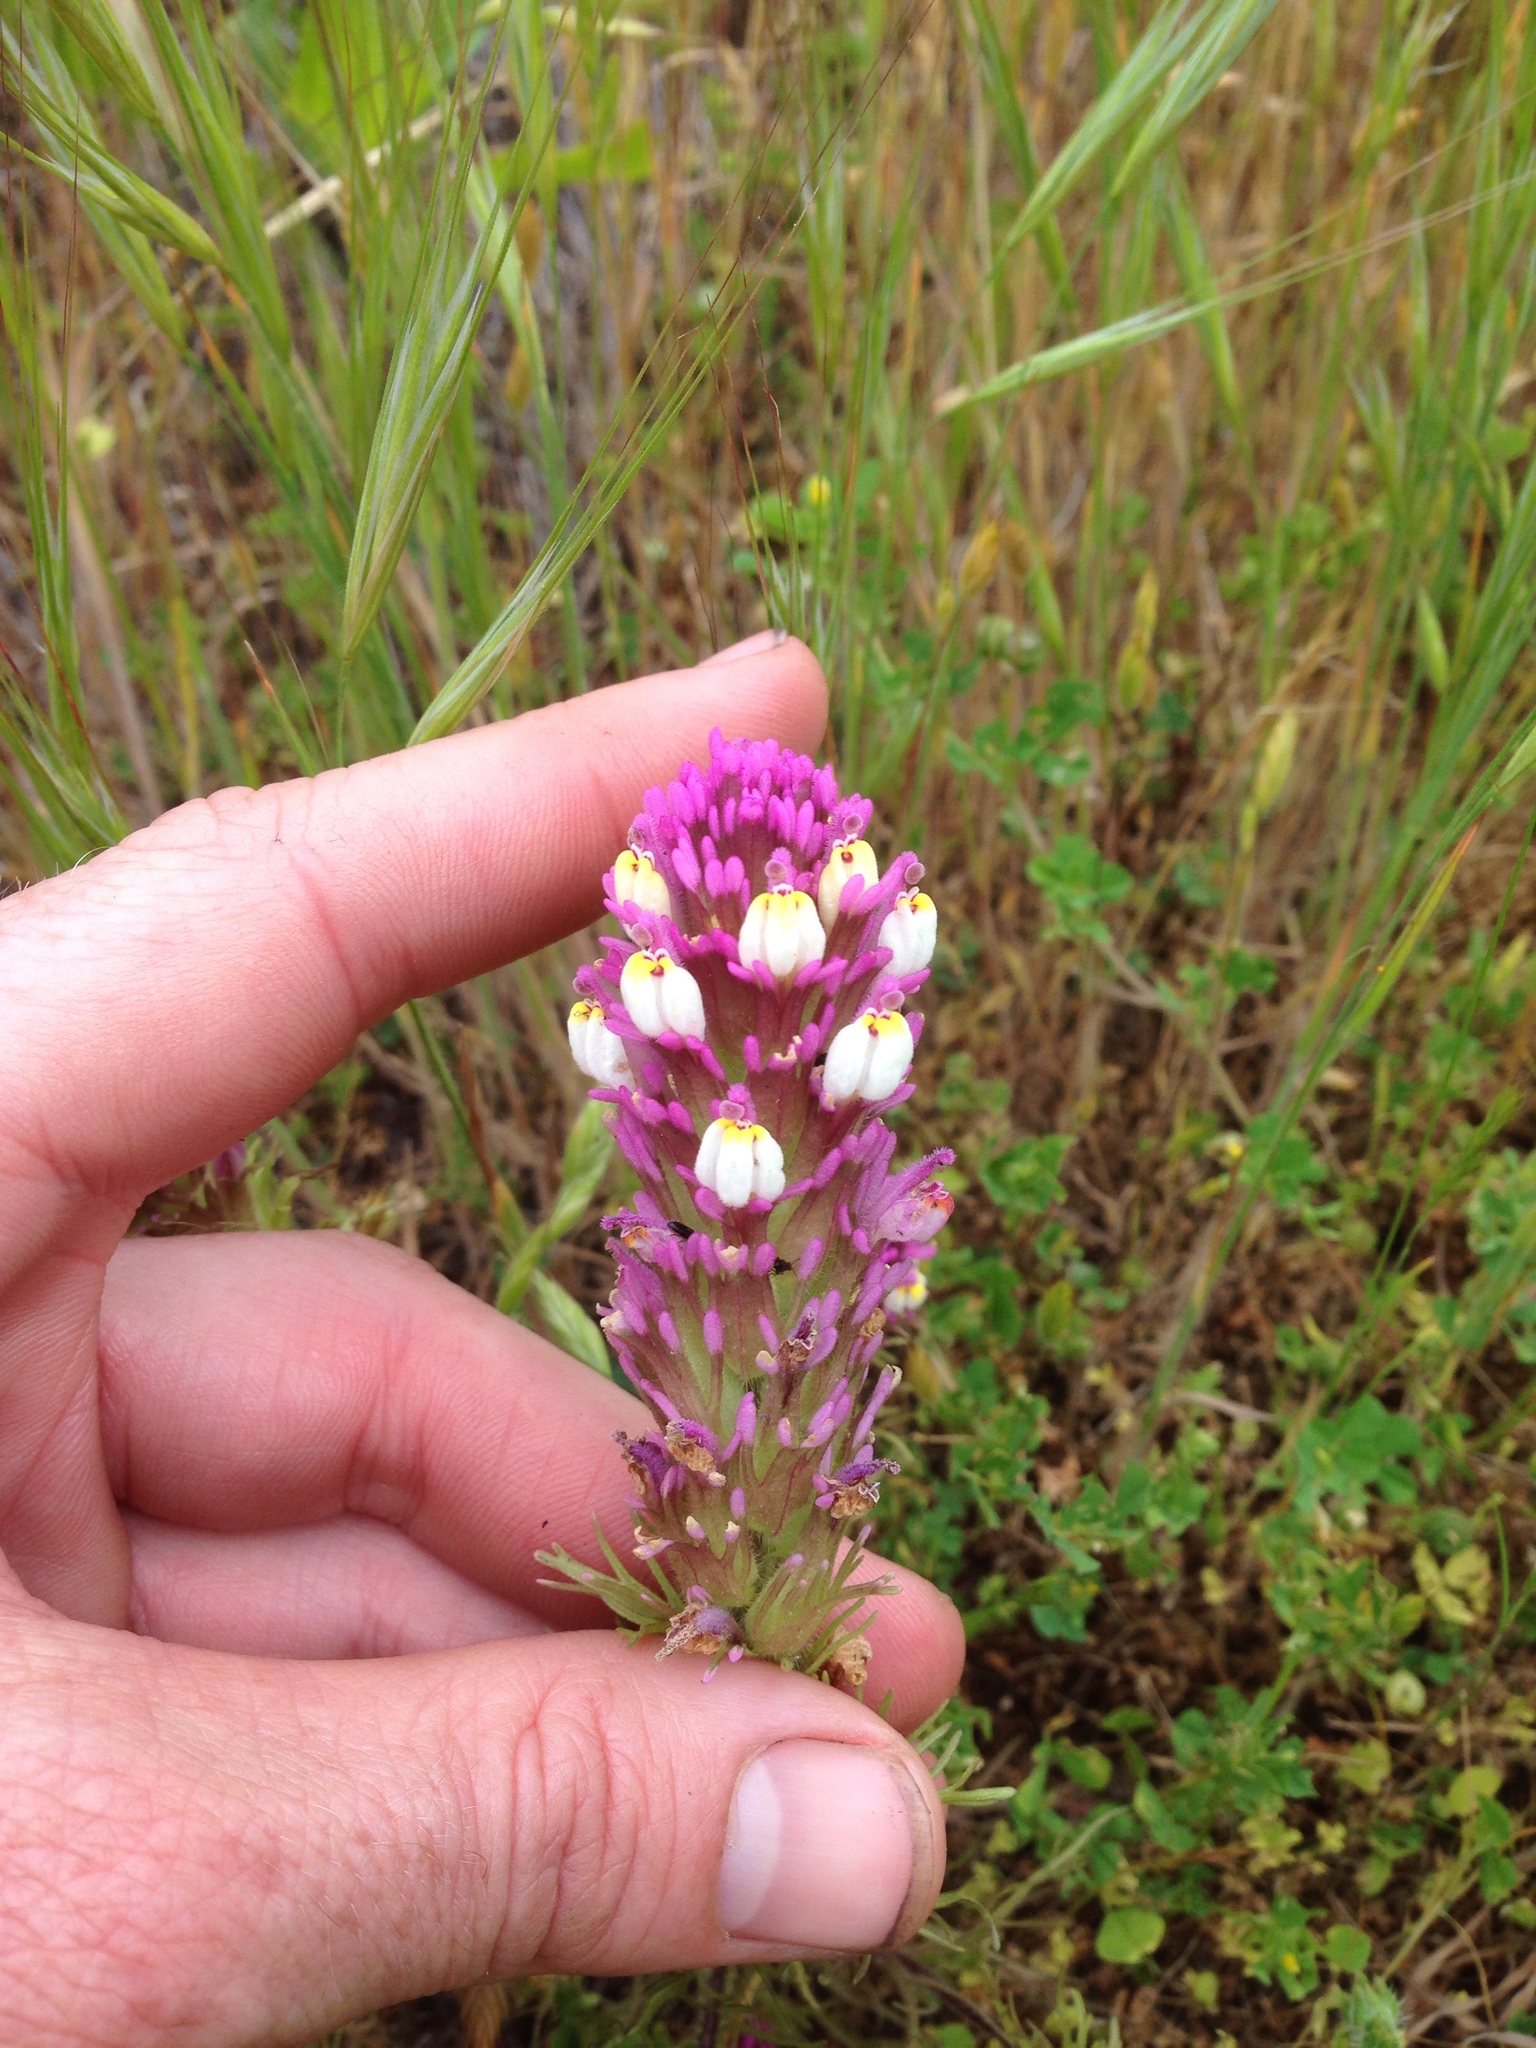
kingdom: Plantae
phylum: Tracheophyta
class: Magnoliopsida
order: Lamiales
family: Orobanchaceae
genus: Castilleja
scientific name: Castilleja exserta
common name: Purple owl-clover
